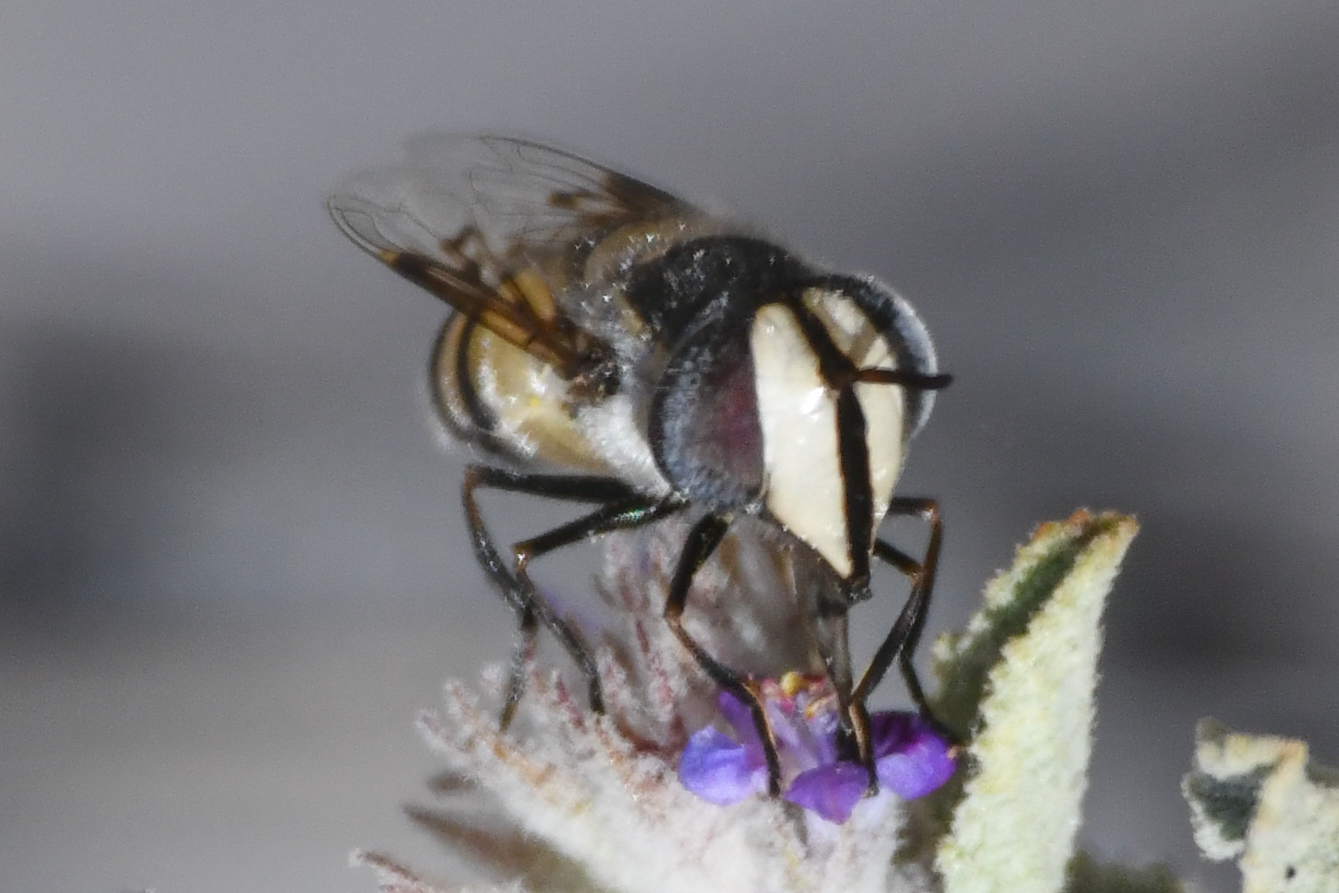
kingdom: Animalia
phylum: Arthropoda
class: Insecta
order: Diptera
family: Syrphidae
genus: Copestylum
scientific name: Copestylum fornax
